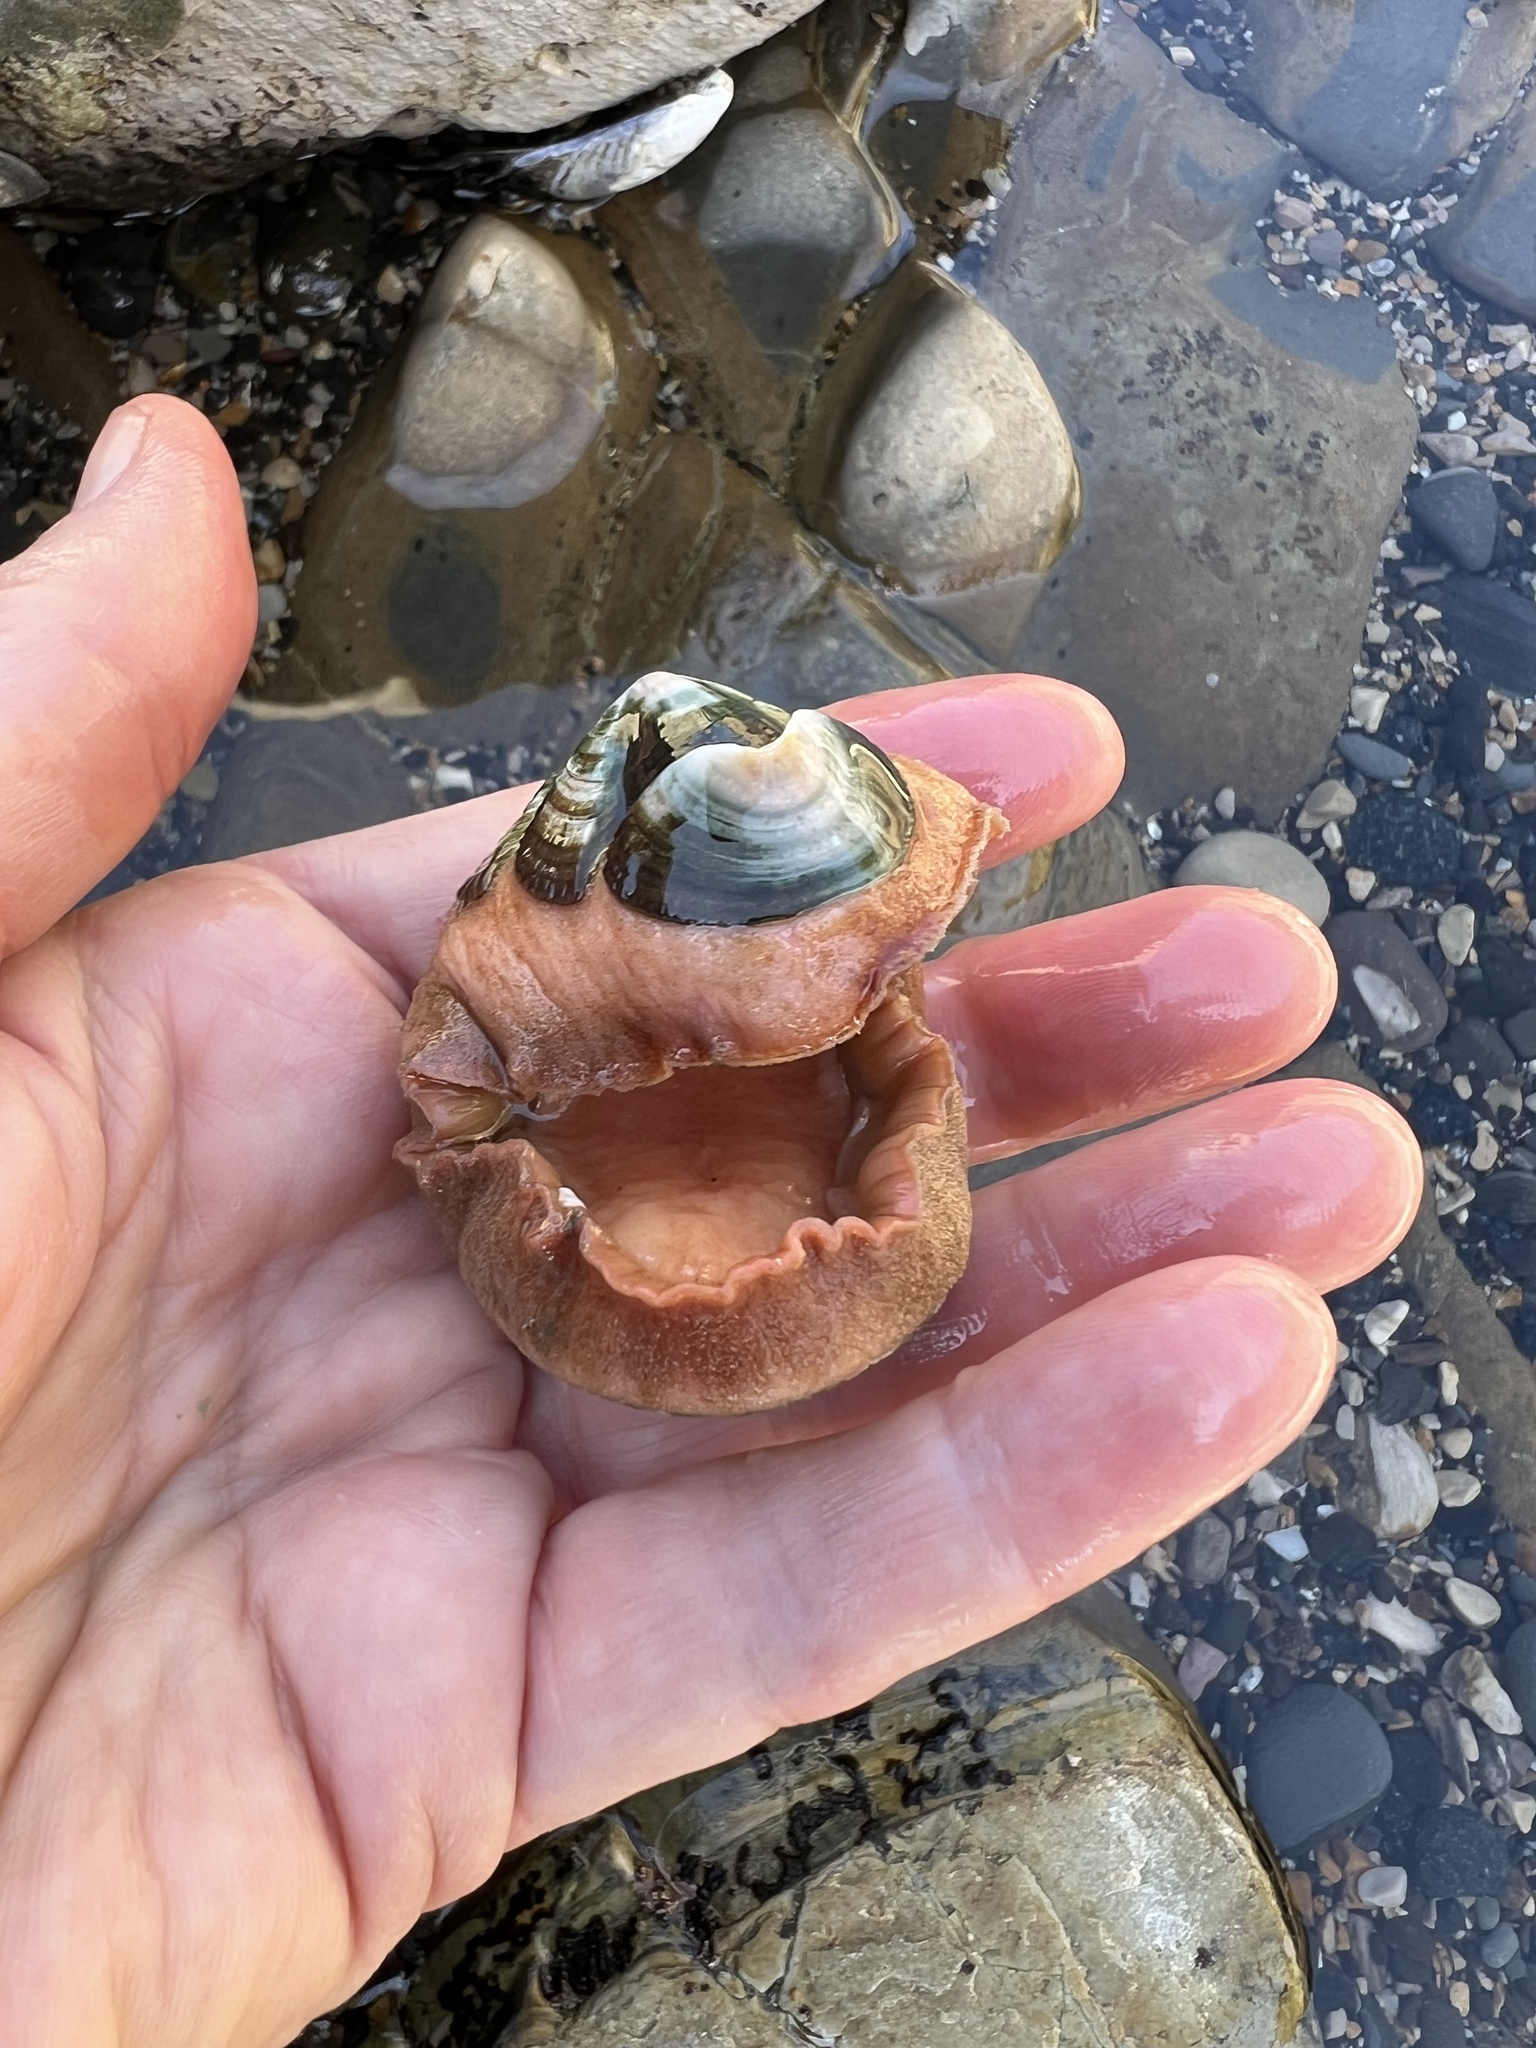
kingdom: Animalia
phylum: Mollusca
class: Polyplacophora
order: Chitonida
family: Ischnochitonidae
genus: Stenoplax
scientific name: Stenoplax conspicua
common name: Conspicuous chiton
